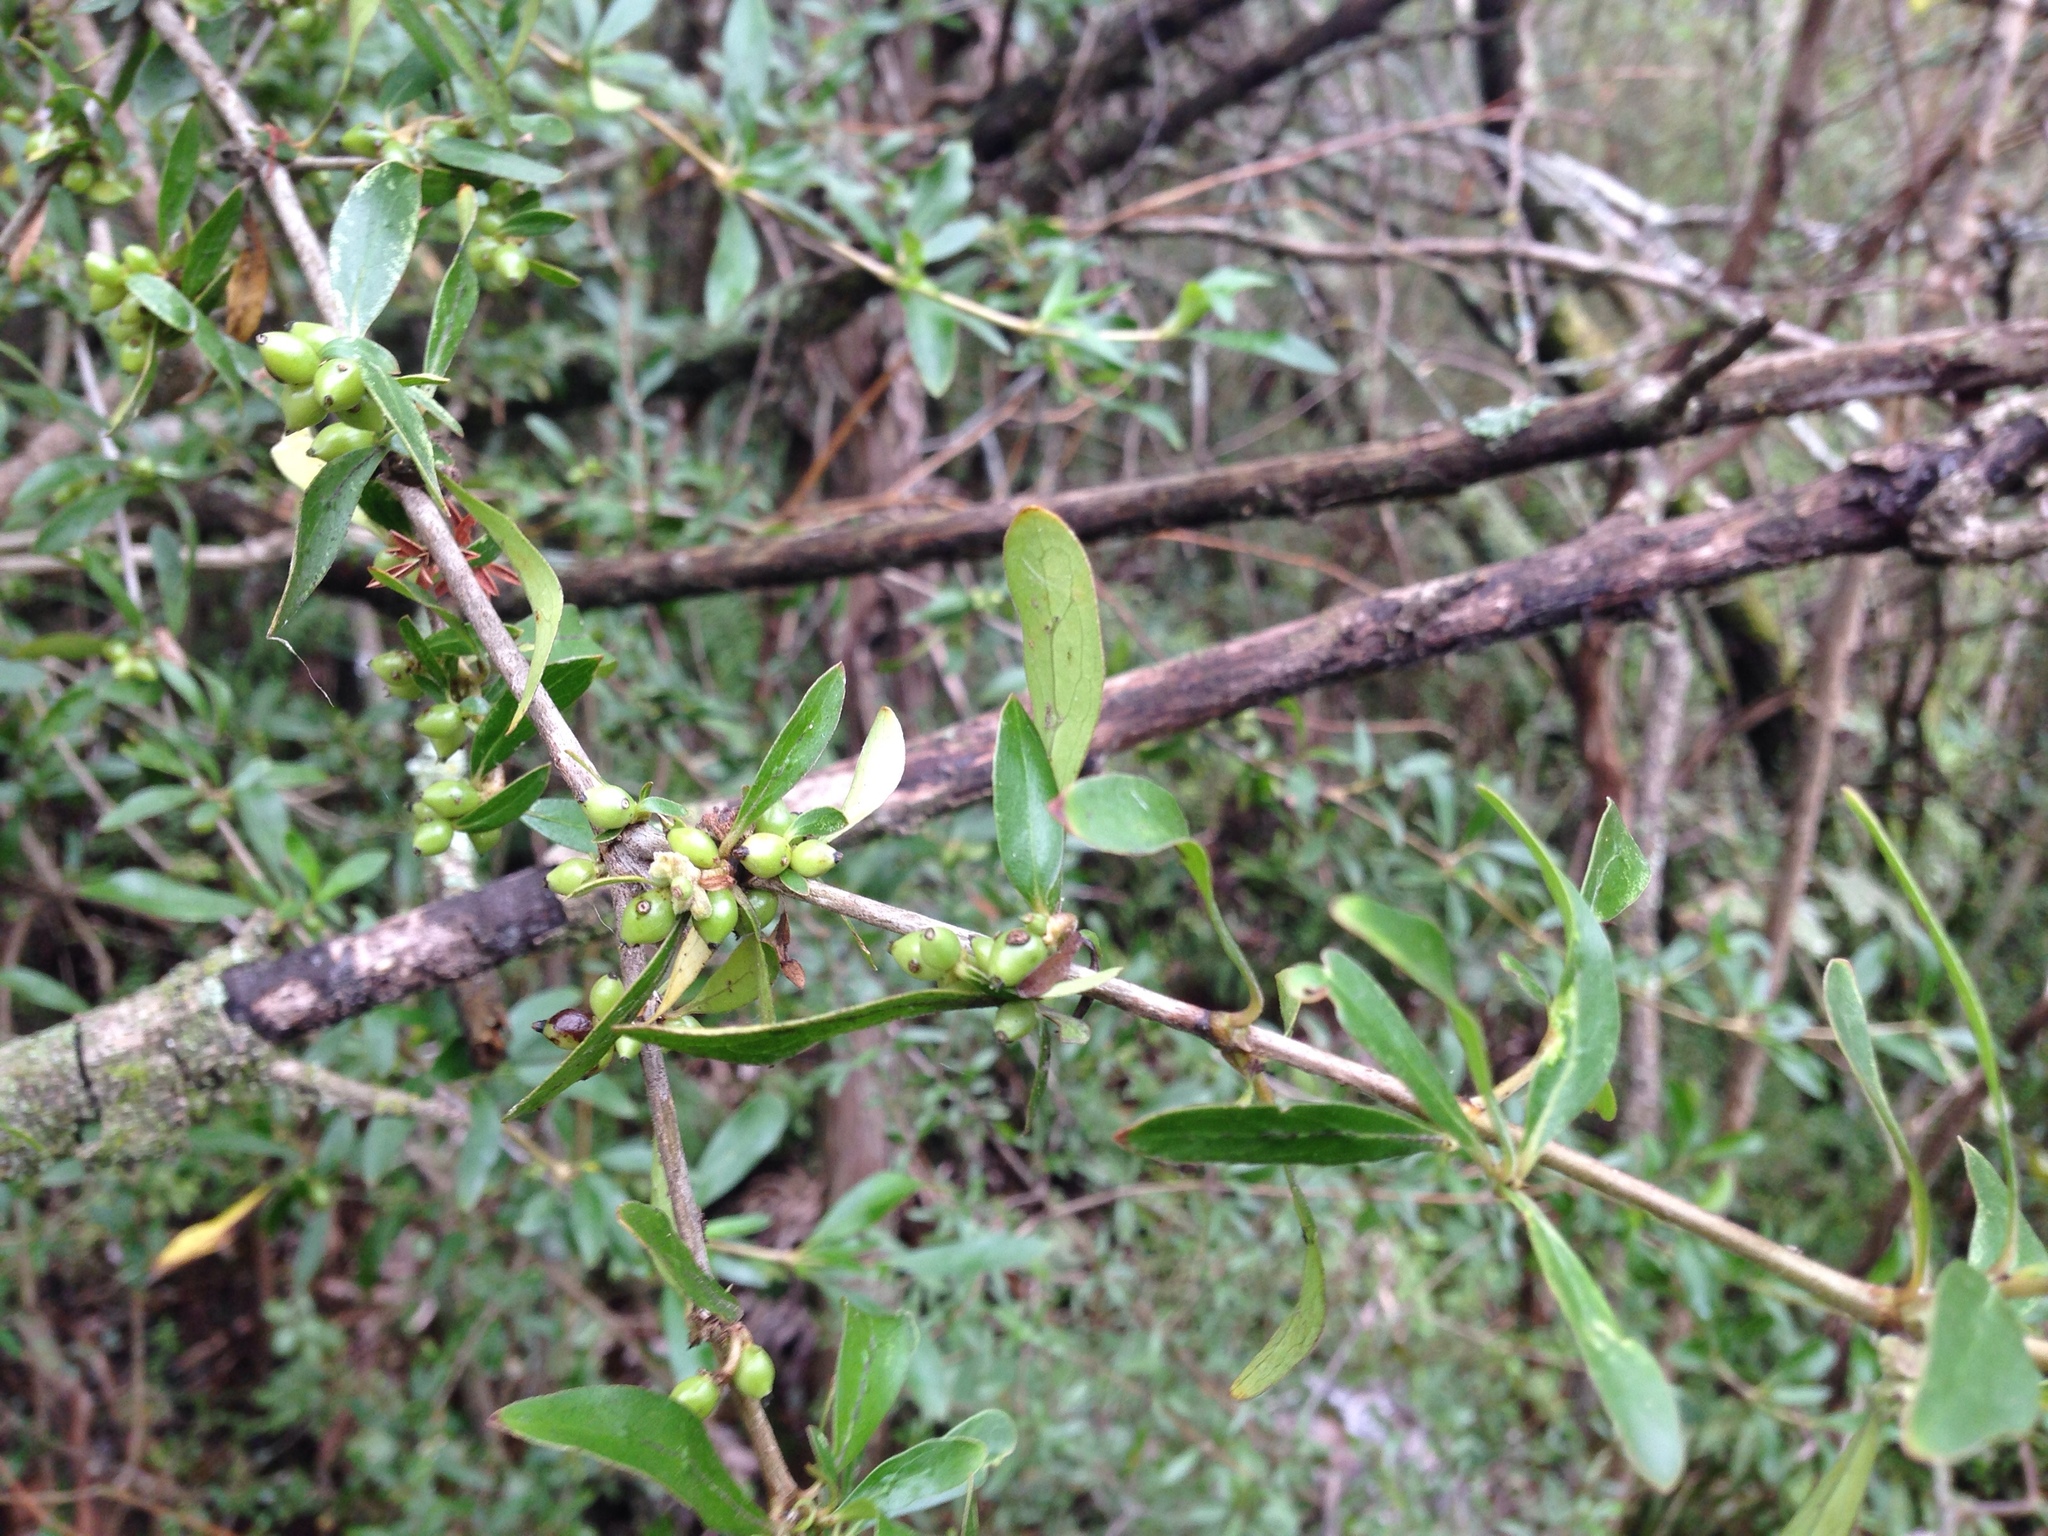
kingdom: Plantae
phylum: Tracheophyta
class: Magnoliopsida
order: Gentianales
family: Rubiaceae
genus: Coprosma
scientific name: Coprosma cunninghamii
